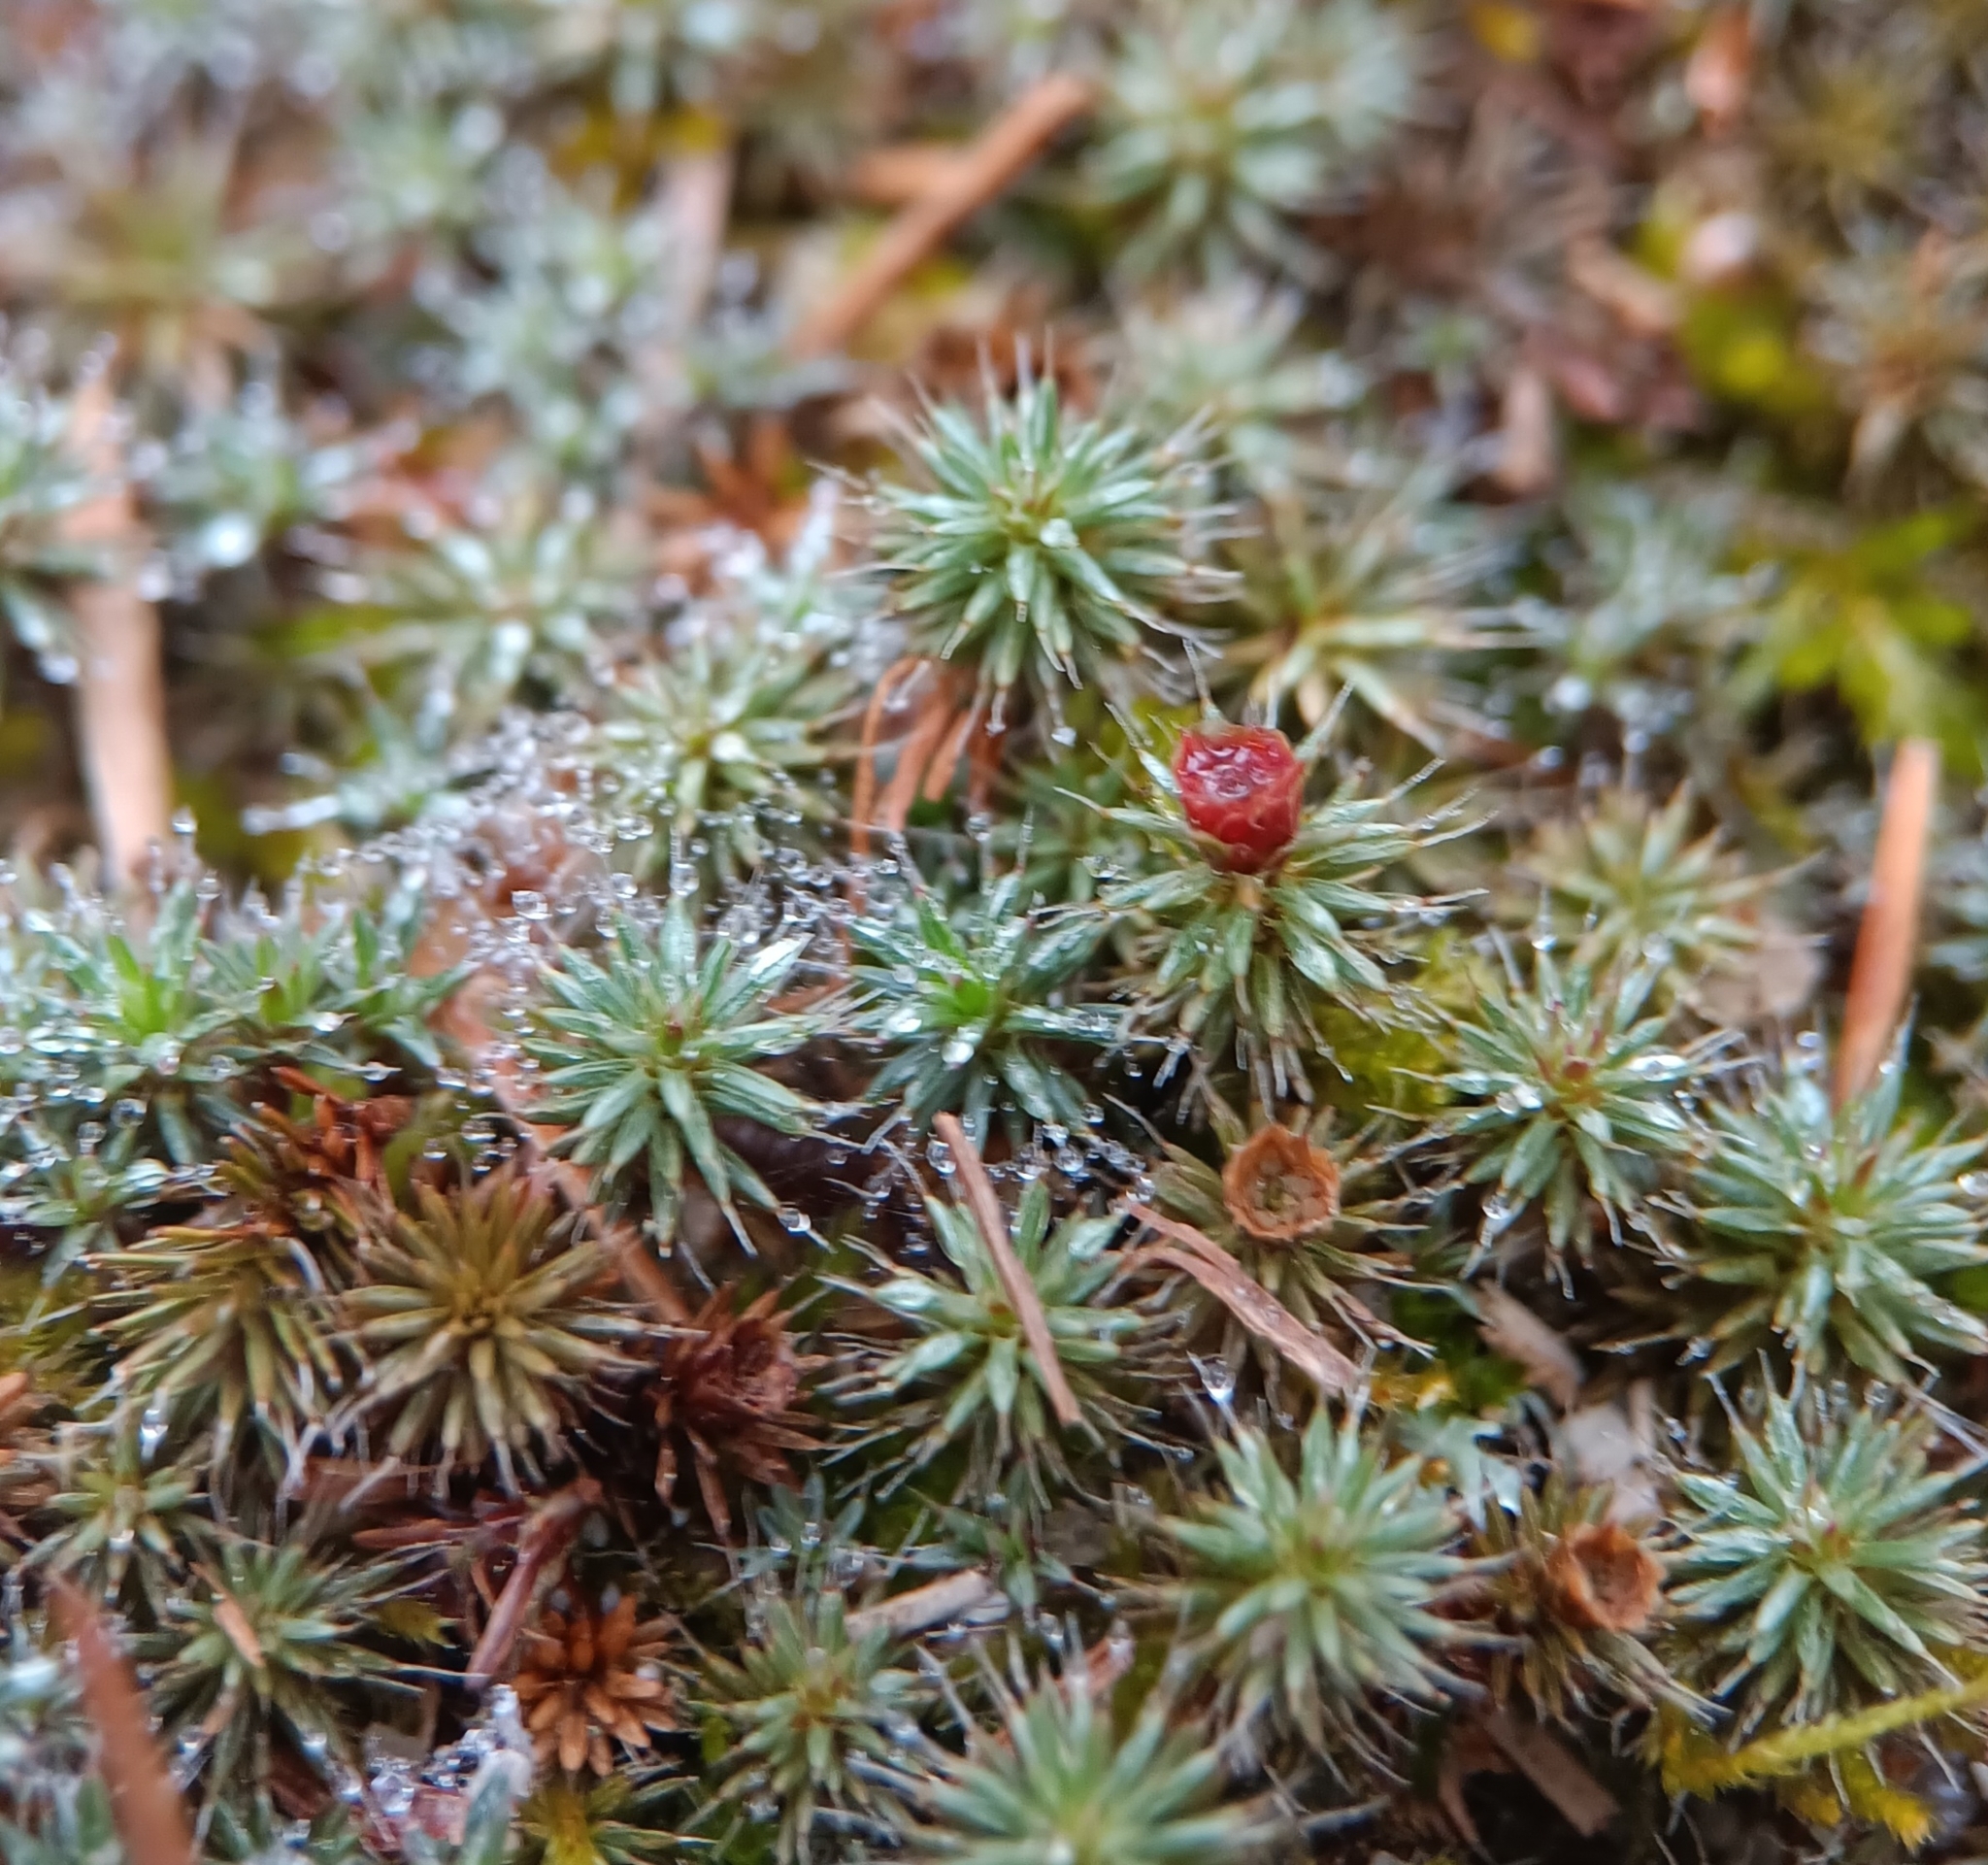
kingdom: Plantae
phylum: Bryophyta
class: Polytrichopsida
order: Polytrichales
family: Polytrichaceae
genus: Polytrichum
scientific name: Polytrichum piliferum
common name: Bristly haircap
